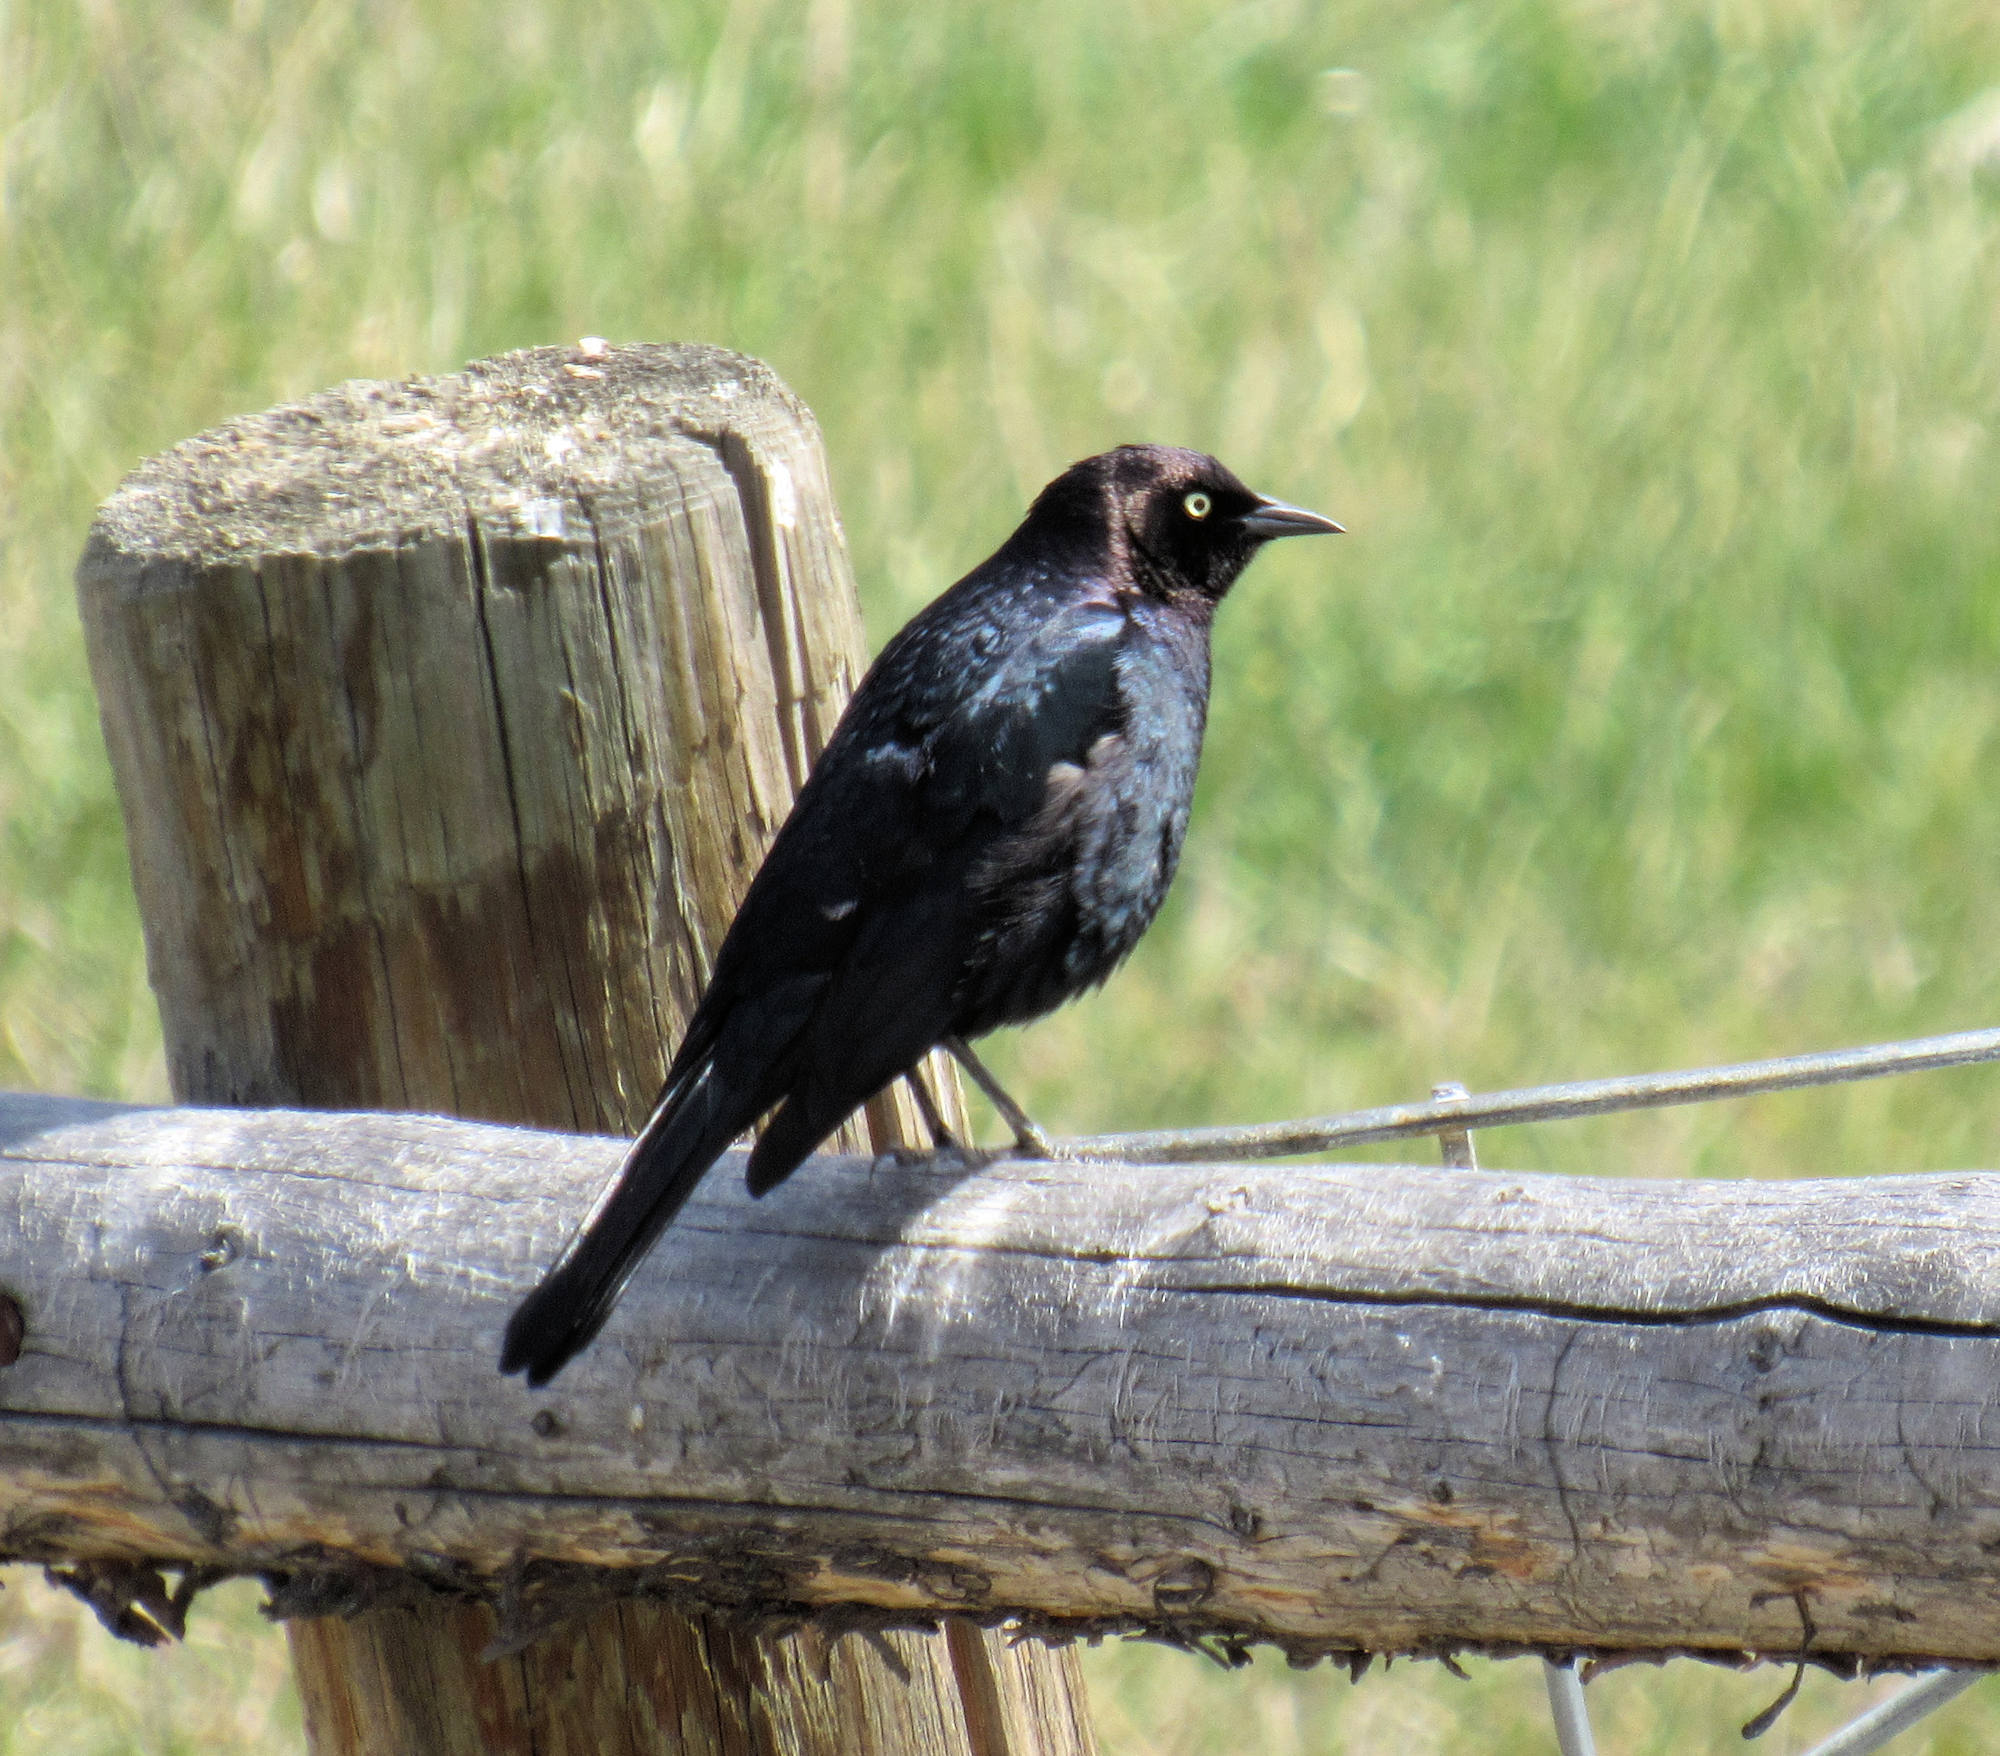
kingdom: Animalia
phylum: Chordata
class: Aves
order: Passeriformes
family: Icteridae
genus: Euphagus
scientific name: Euphagus cyanocephalus
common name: Brewer's blackbird
